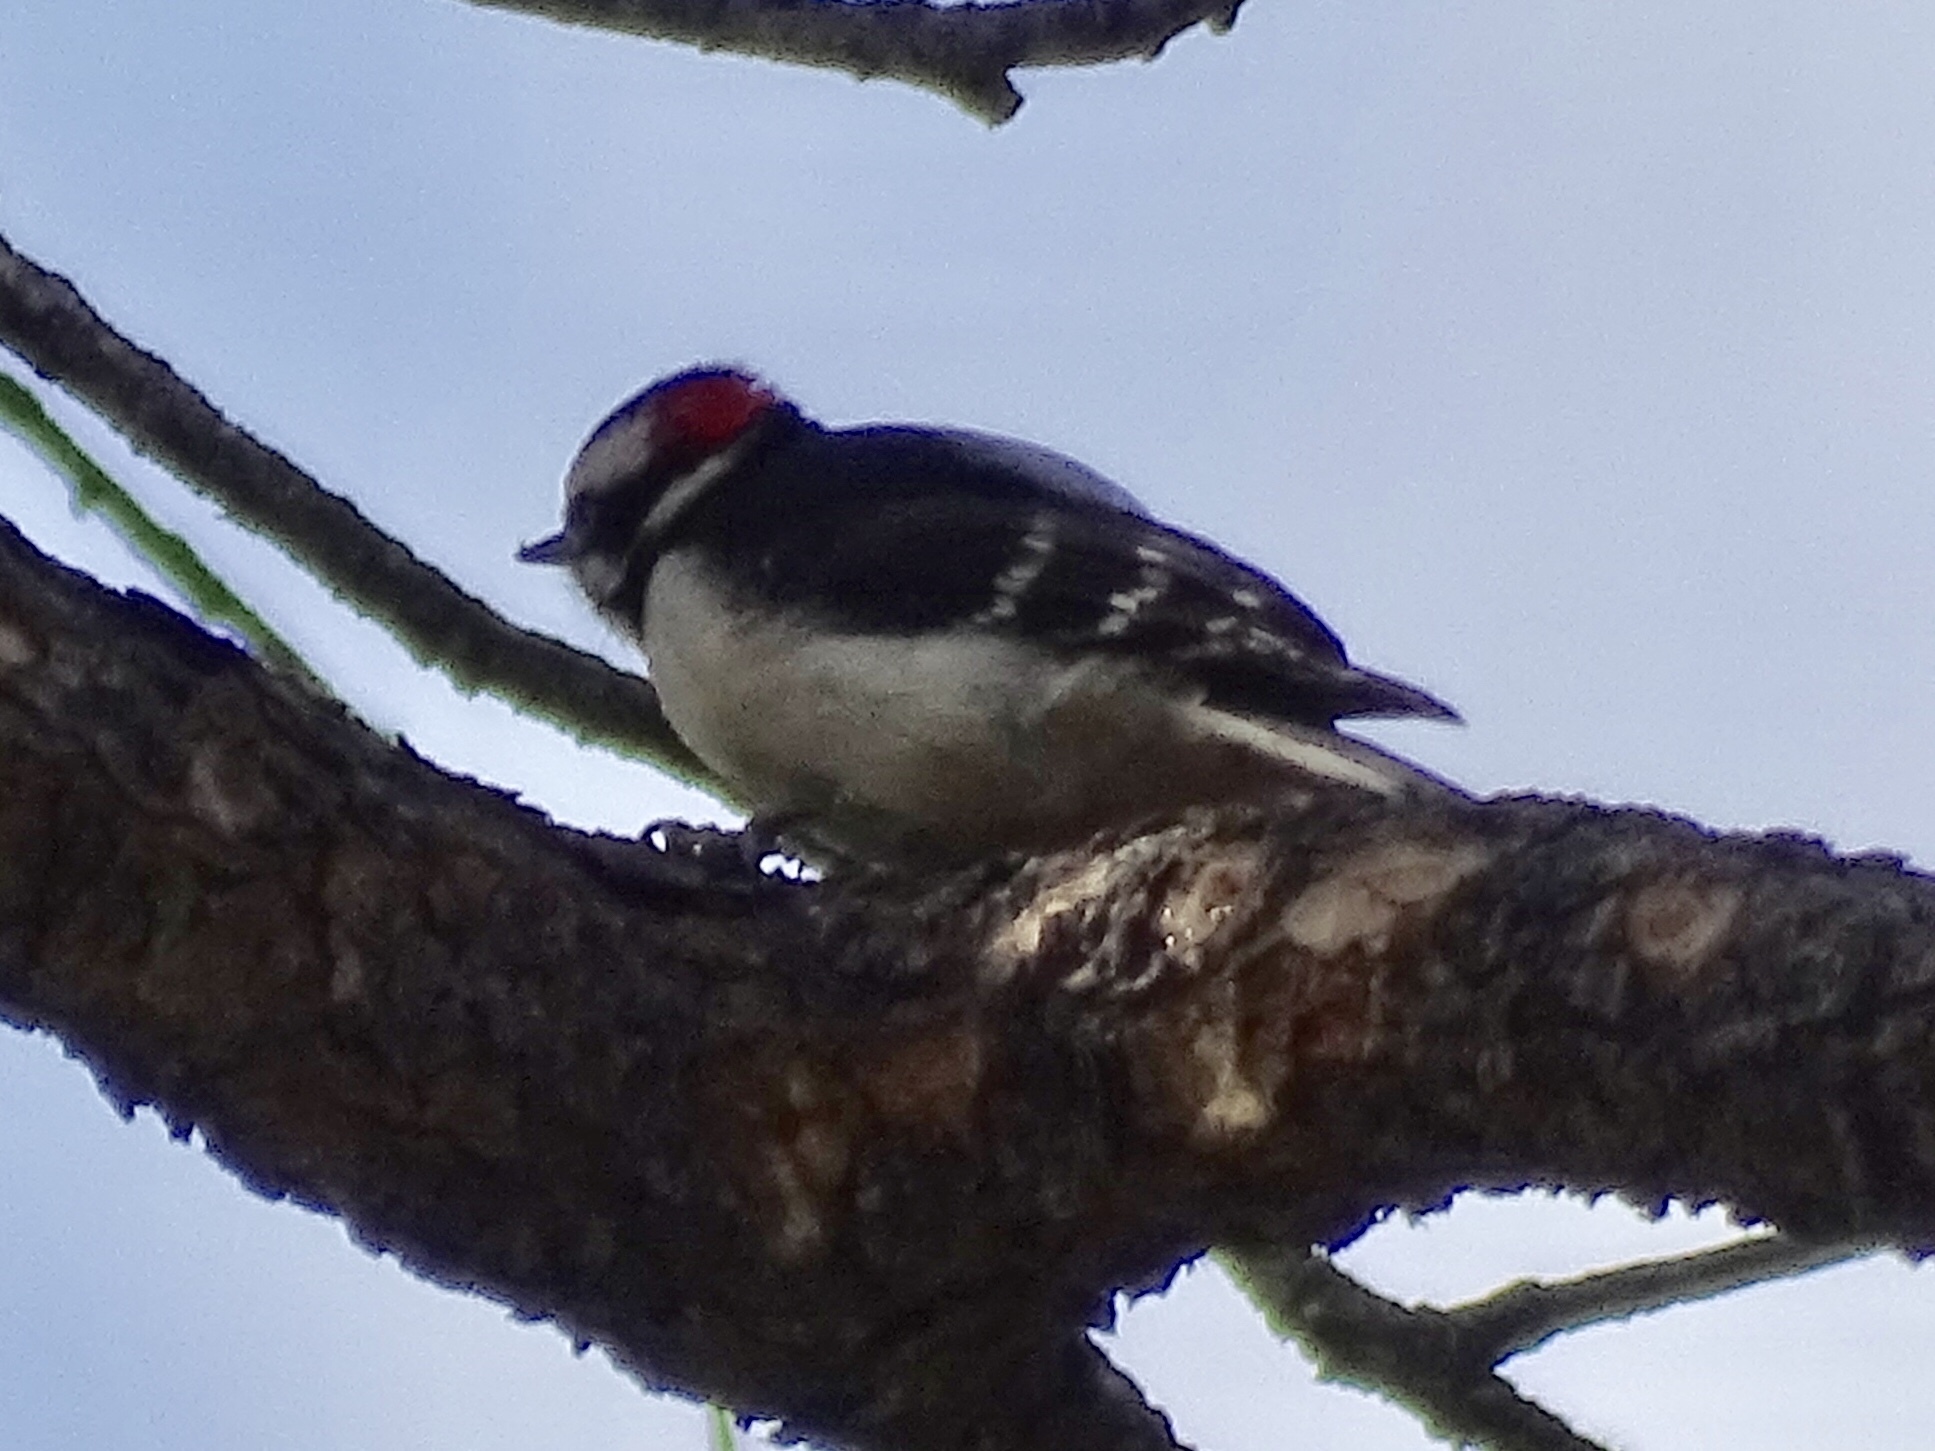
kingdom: Animalia
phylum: Chordata
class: Aves
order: Piciformes
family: Picidae
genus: Dryobates
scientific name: Dryobates pubescens
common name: Downy woodpecker
